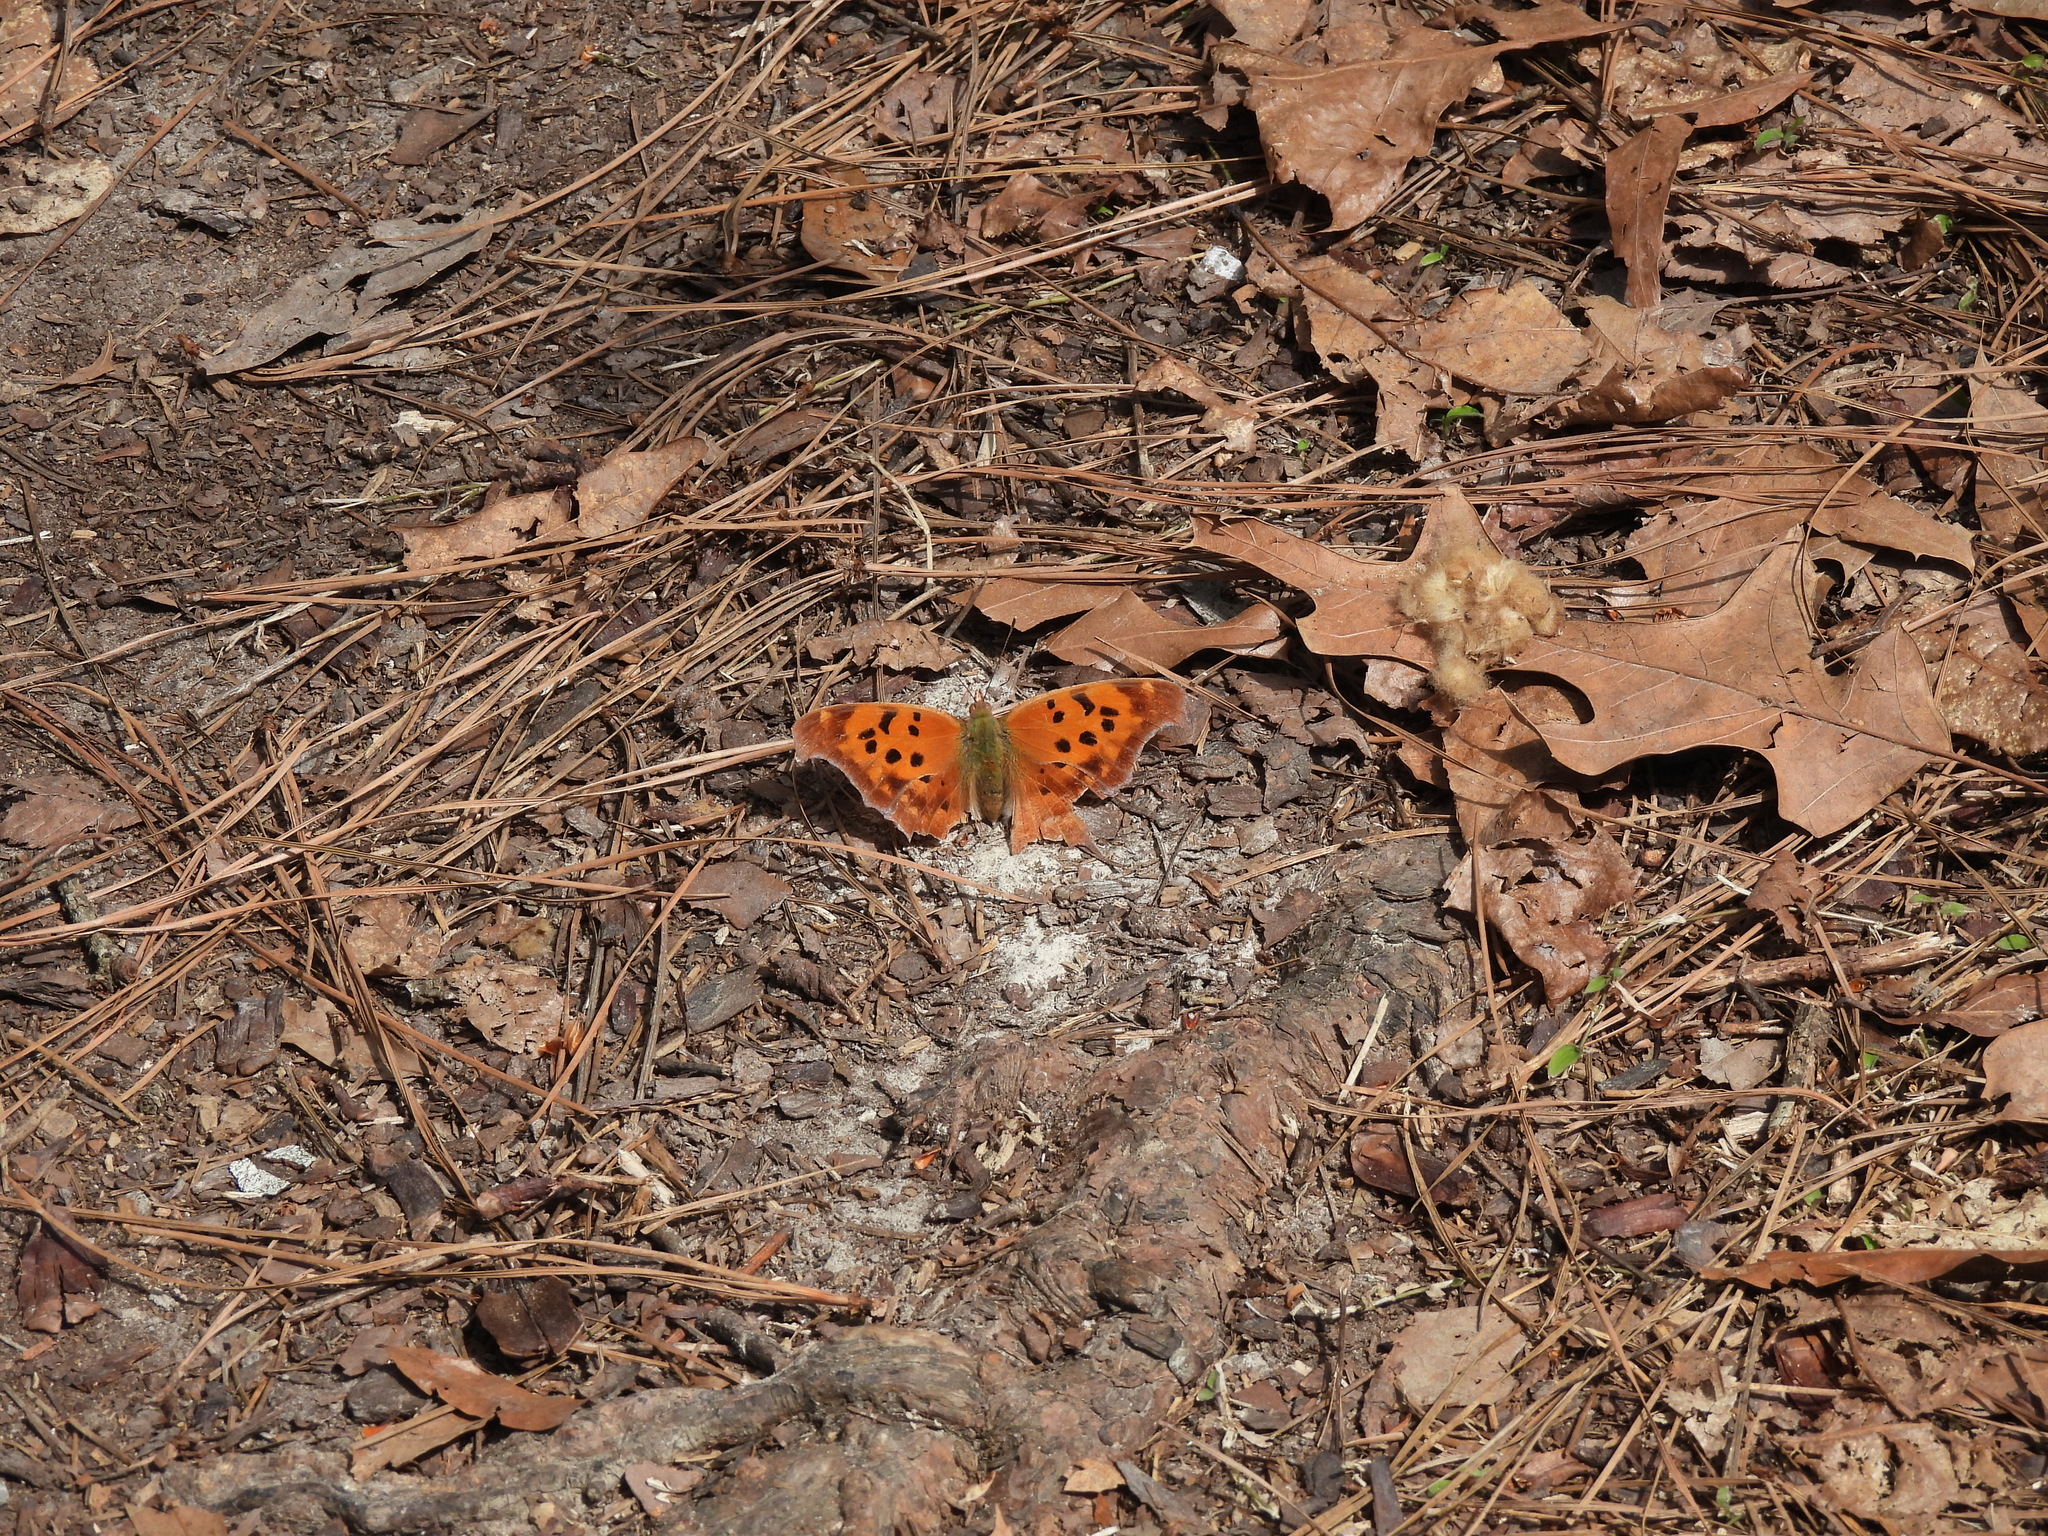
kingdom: Animalia
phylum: Arthropoda
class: Insecta
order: Lepidoptera
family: Nymphalidae
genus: Polygonia
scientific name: Polygonia interrogationis
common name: Question mark
